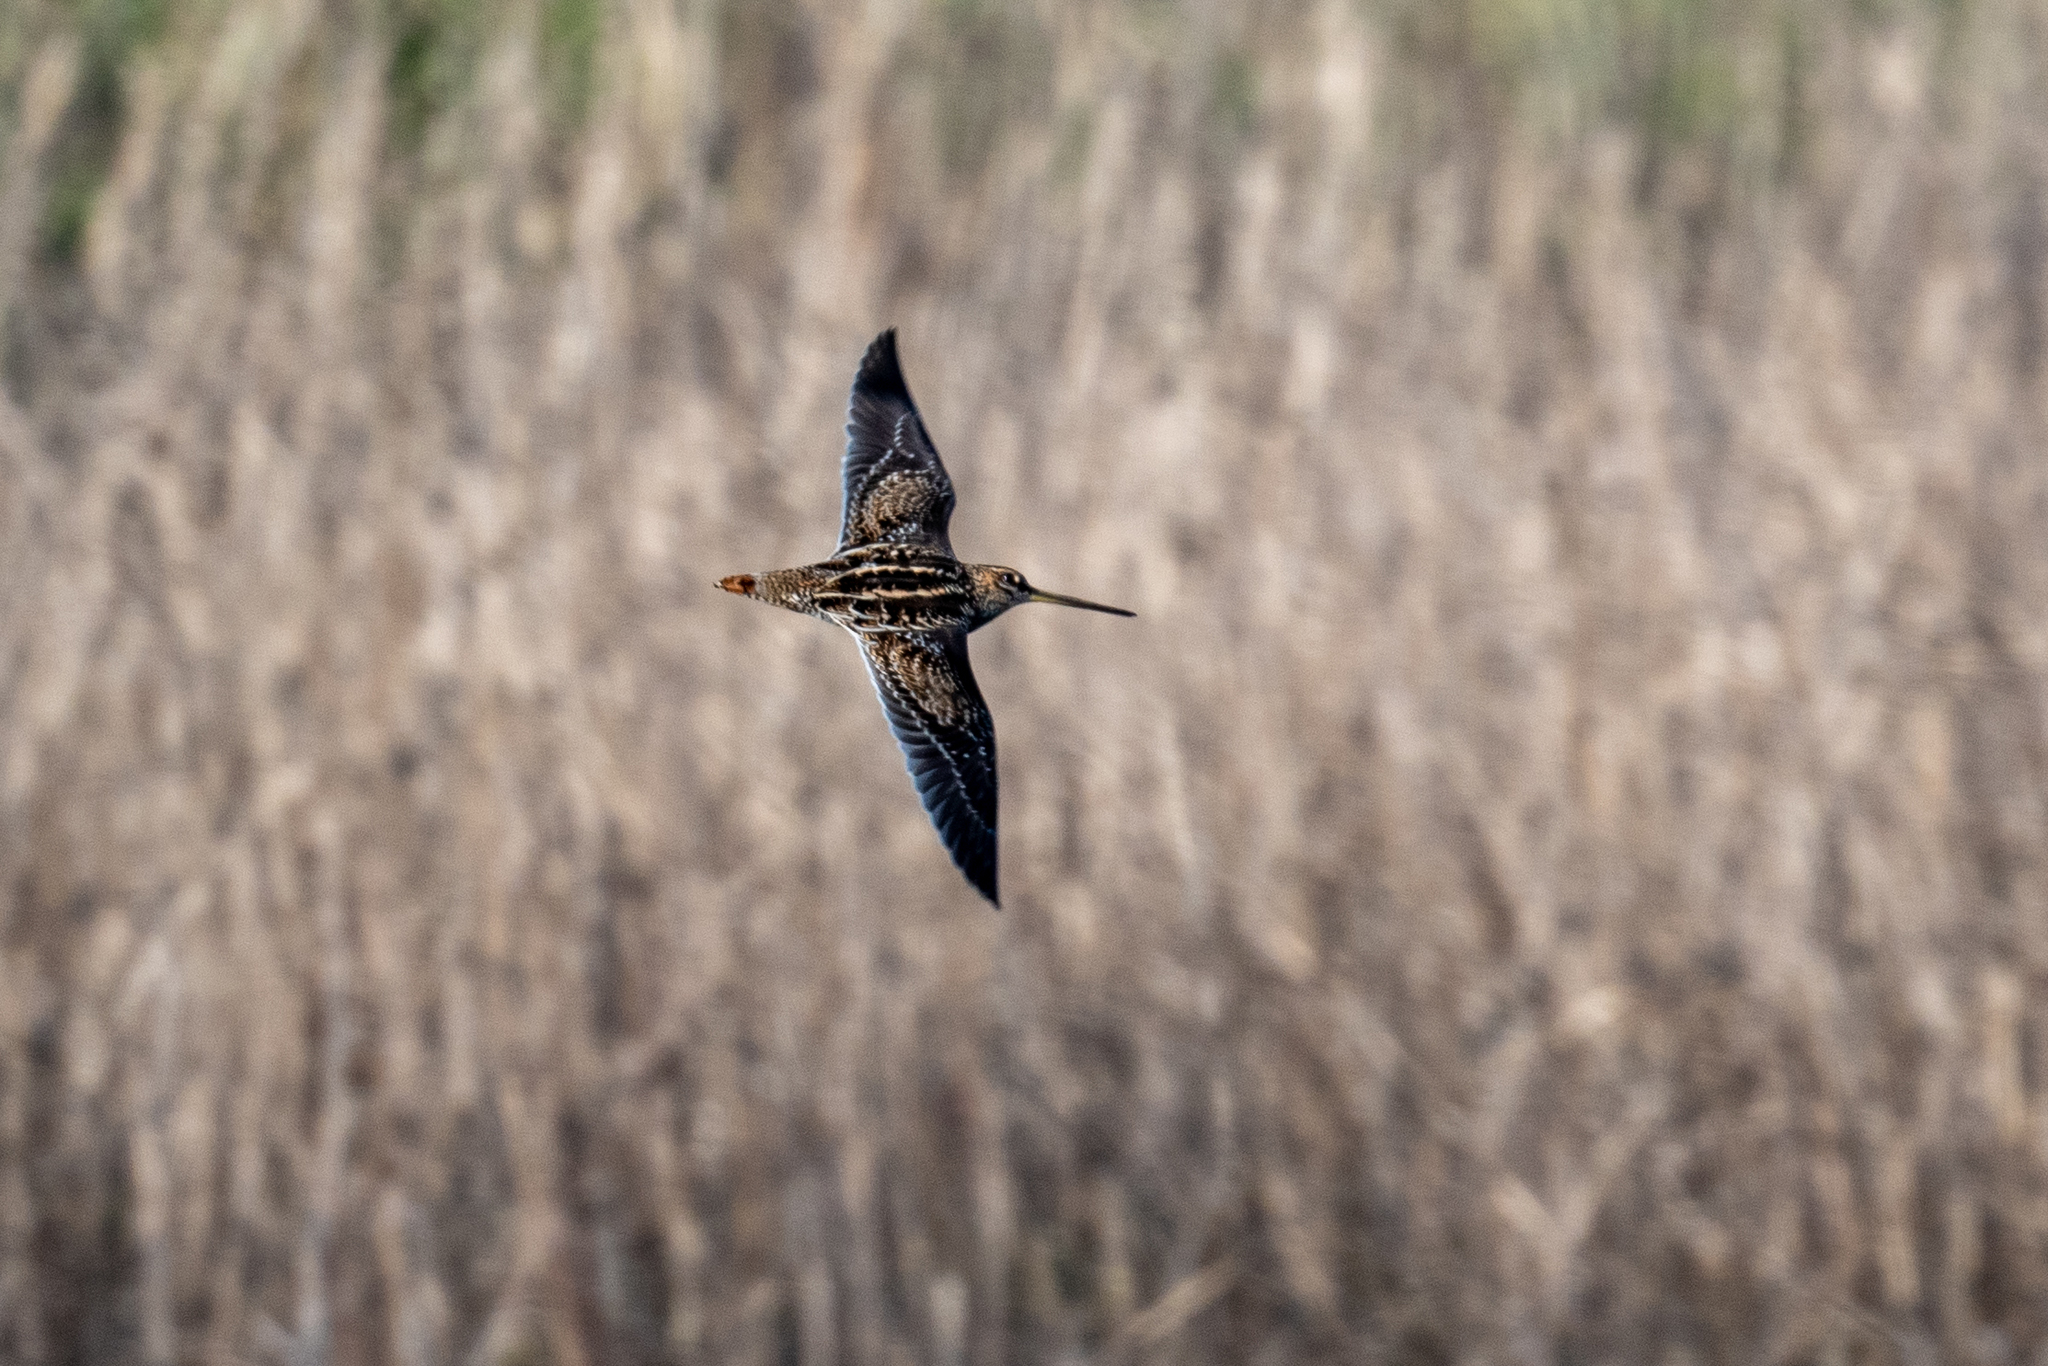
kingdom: Animalia
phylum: Chordata
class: Aves
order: Charadriiformes
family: Scolopacidae
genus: Gallinago
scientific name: Gallinago delicata
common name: Wilson's snipe
